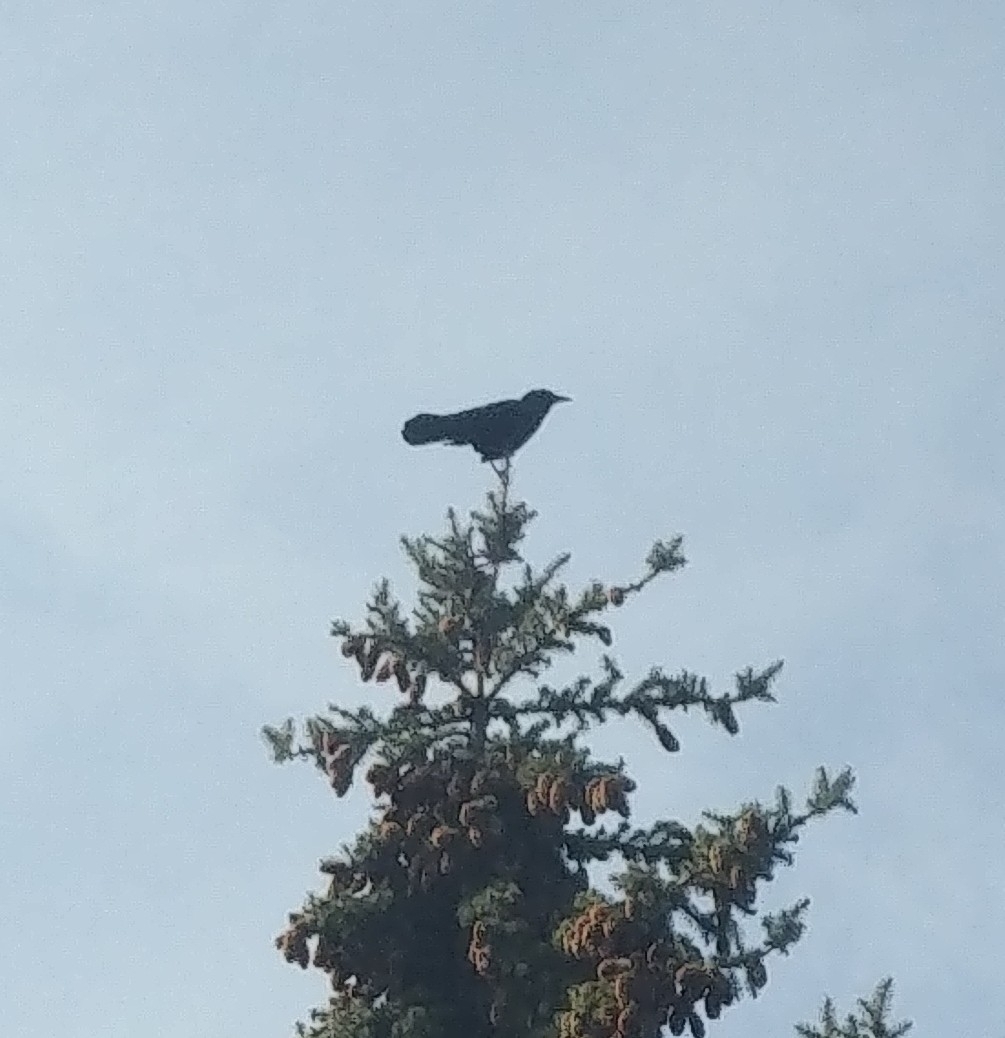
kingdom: Animalia
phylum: Chordata
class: Aves
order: Passeriformes
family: Corvidae
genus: Corvus
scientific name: Corvus brachyrhynchos
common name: American crow
